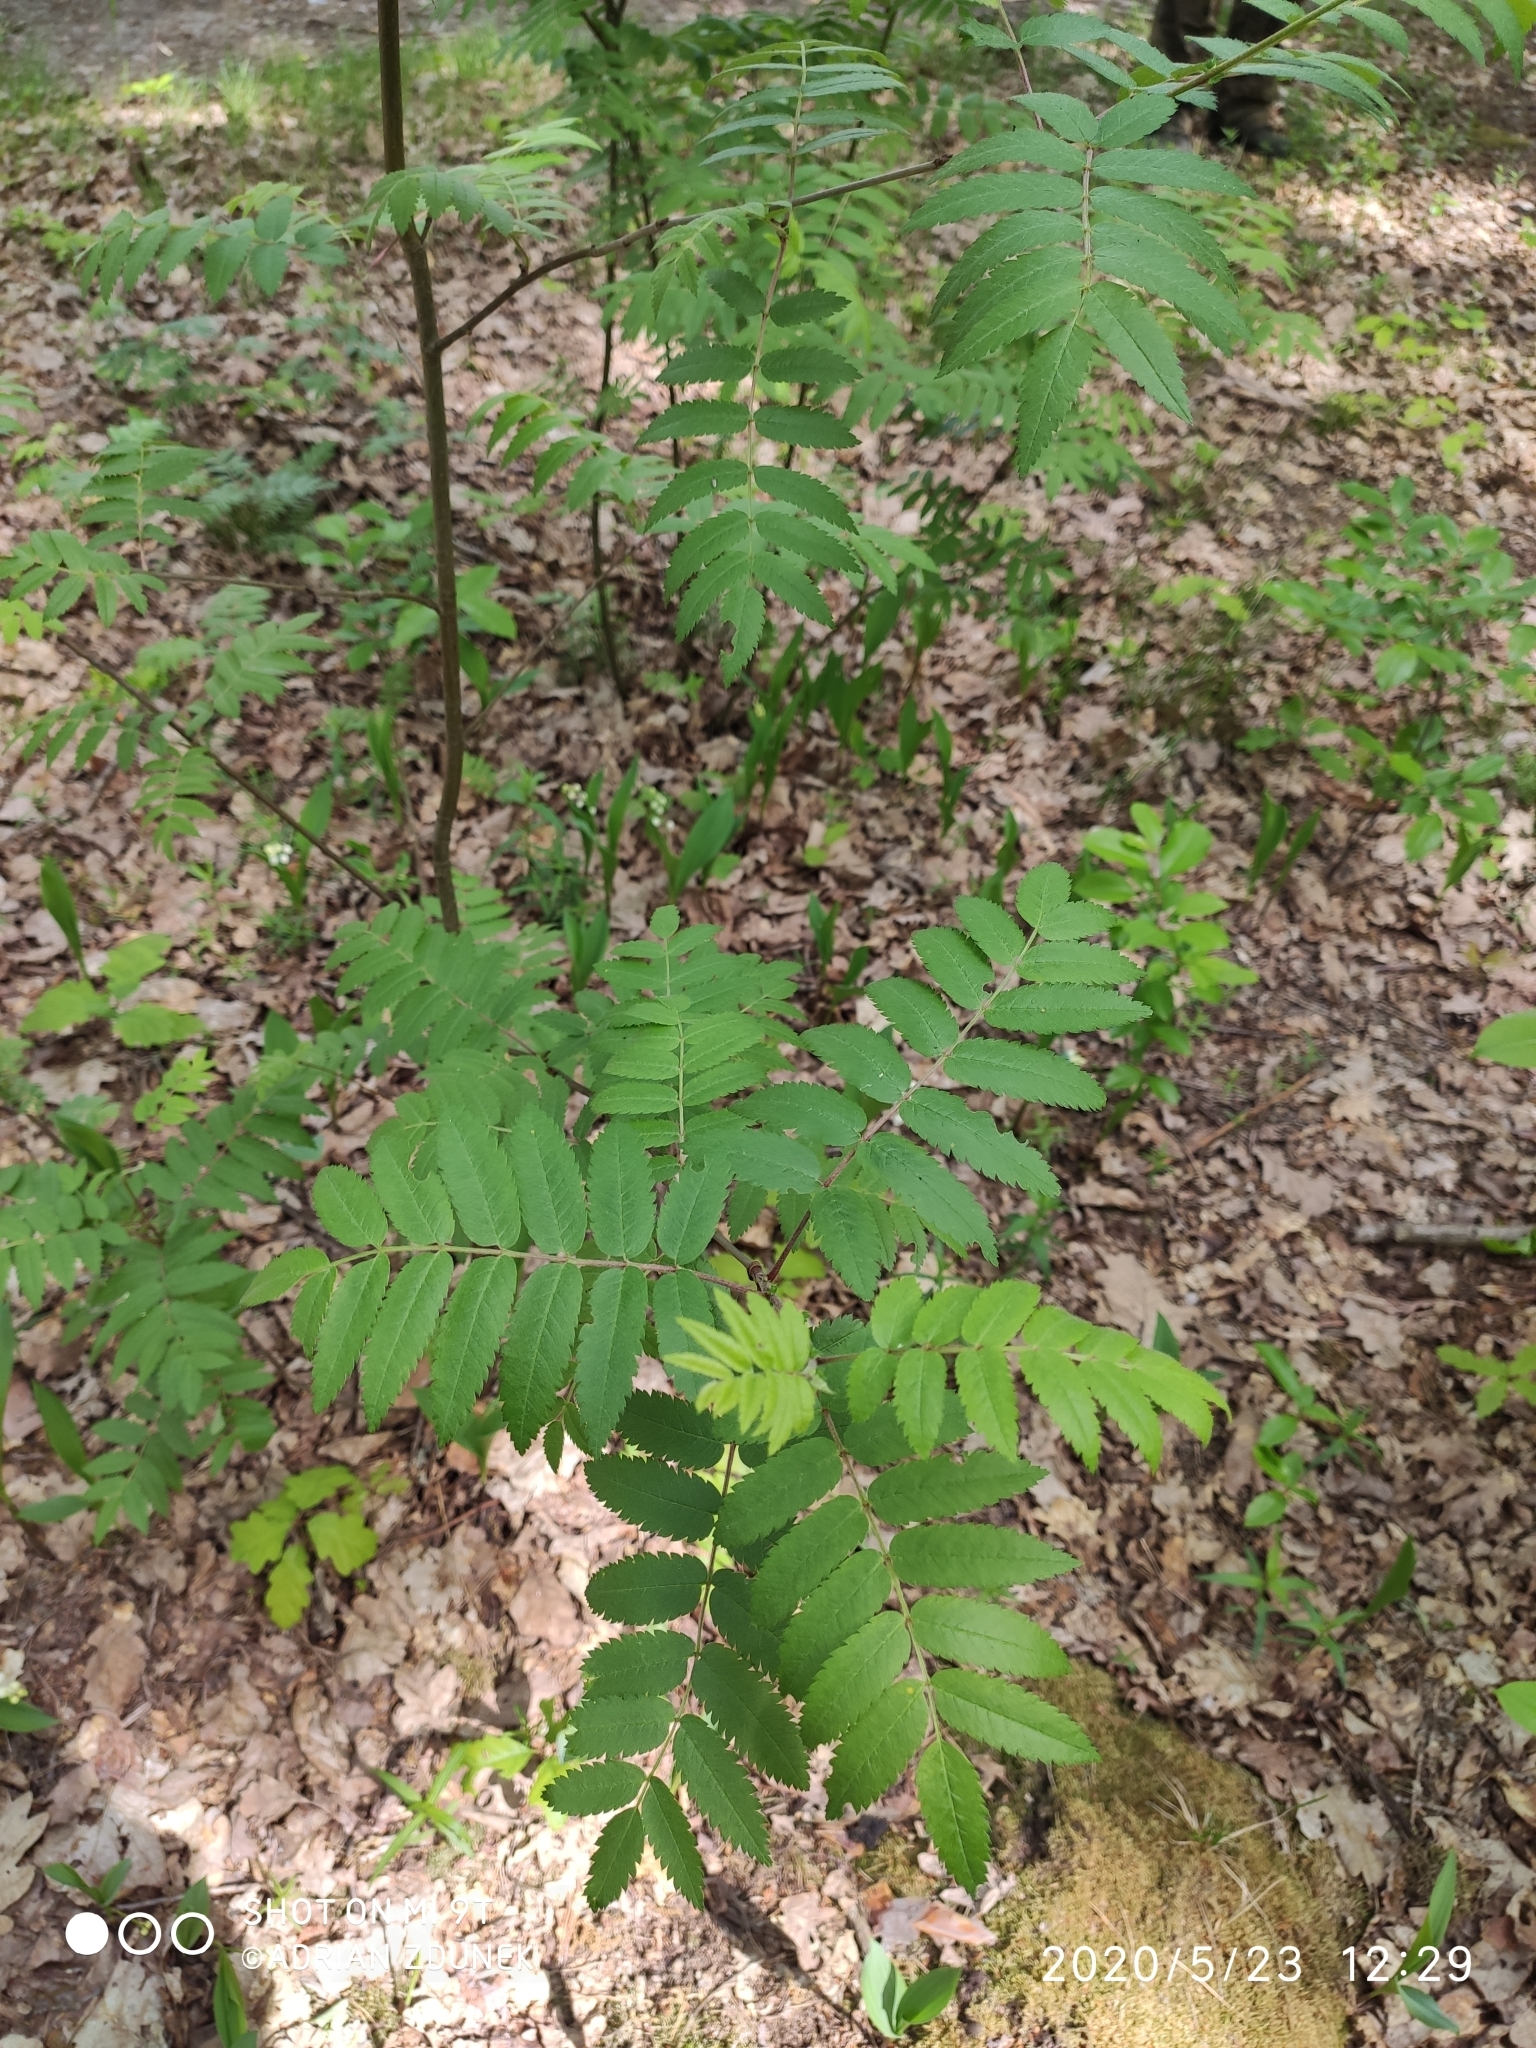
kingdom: Plantae
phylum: Tracheophyta
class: Magnoliopsida
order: Rosales
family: Rosaceae
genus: Sorbus
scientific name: Sorbus aucuparia
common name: Rowan
